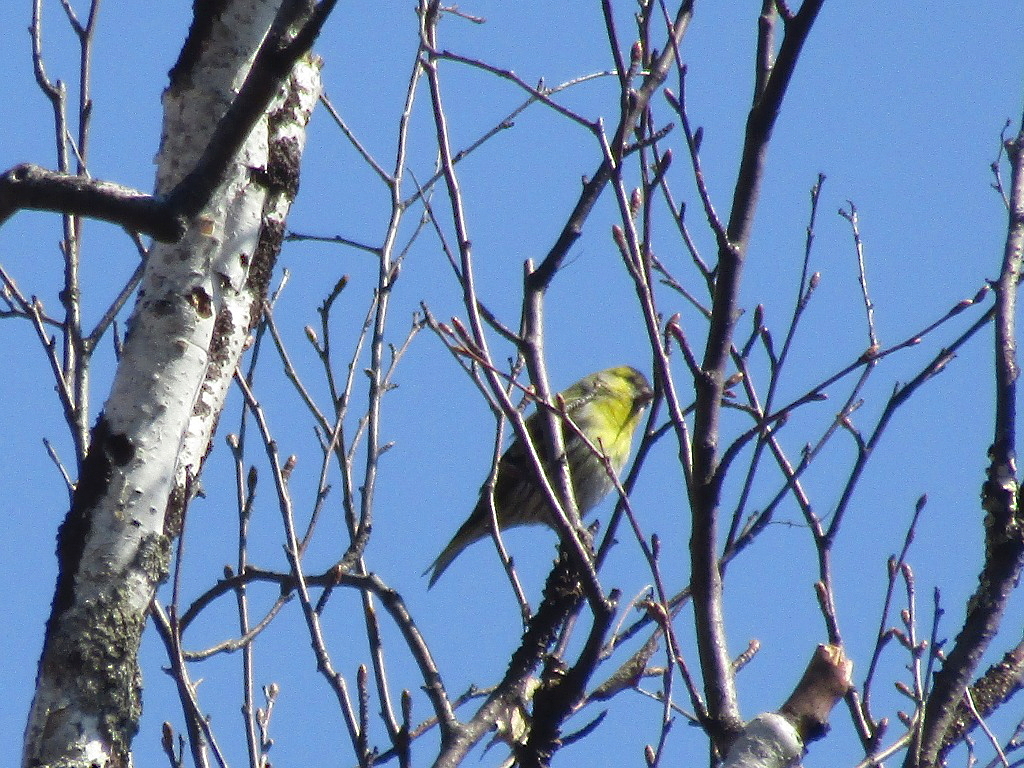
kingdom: Animalia
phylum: Chordata
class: Aves
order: Passeriformes
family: Fringillidae
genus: Spinus
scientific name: Spinus spinus
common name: Eurasian siskin
